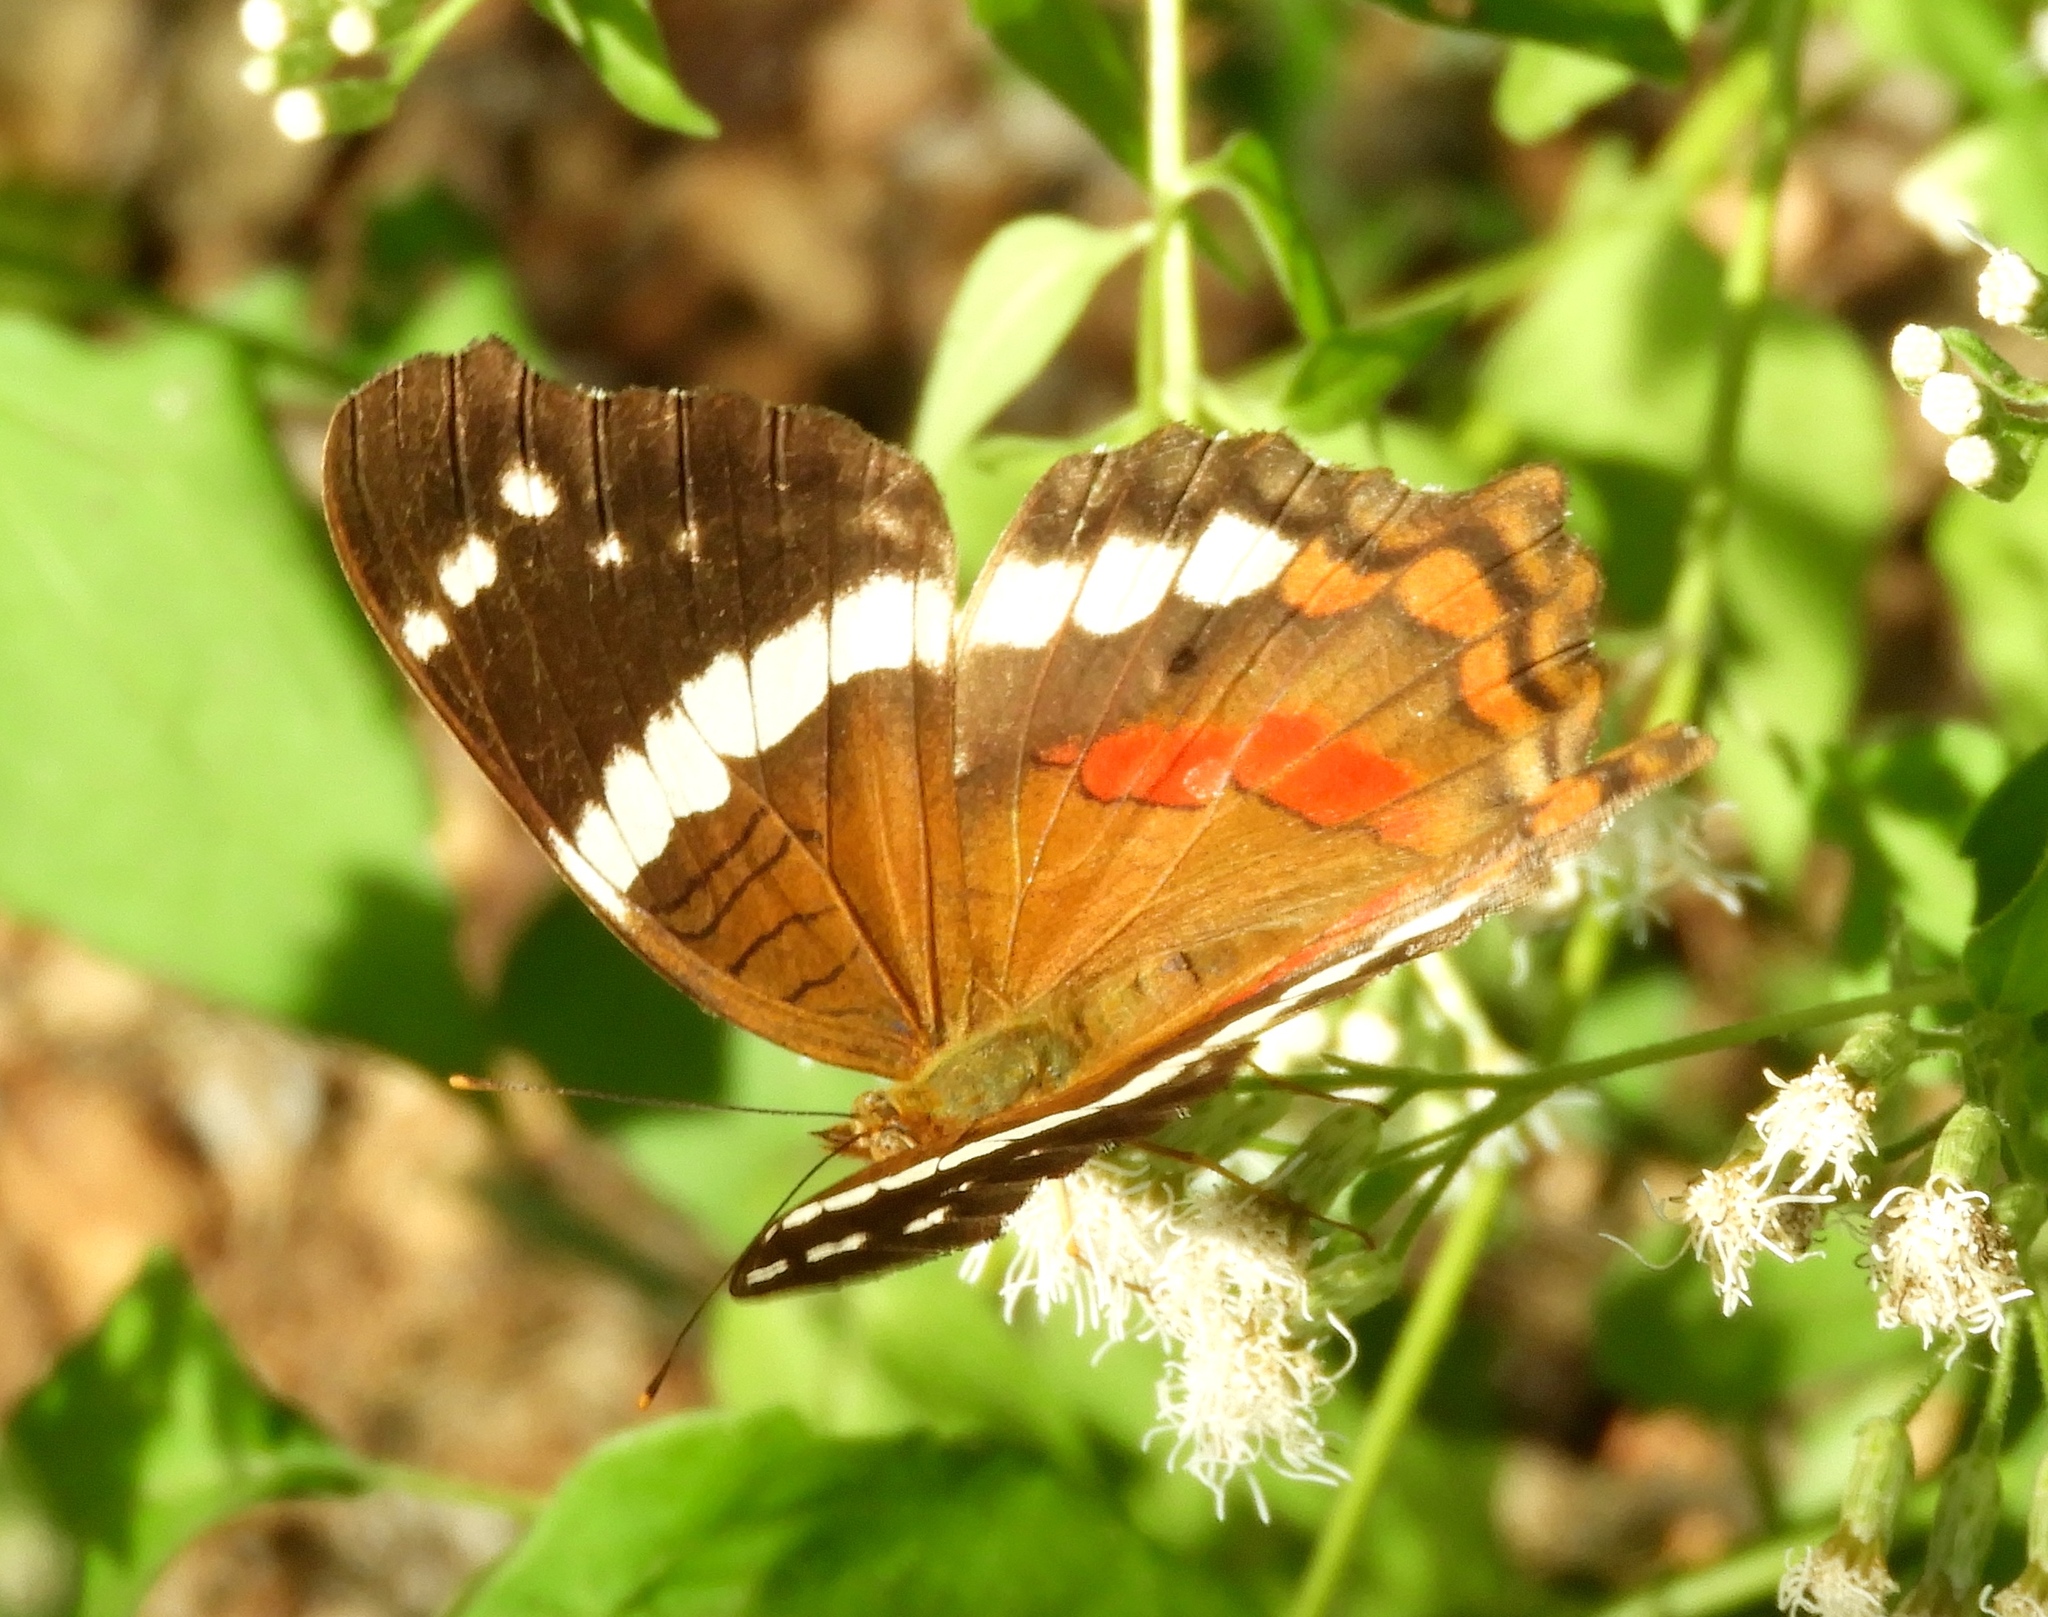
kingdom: Animalia
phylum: Arthropoda
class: Insecta
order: Lepidoptera
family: Nymphalidae
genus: Anartia
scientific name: Anartia fatima
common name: Banded peacock
